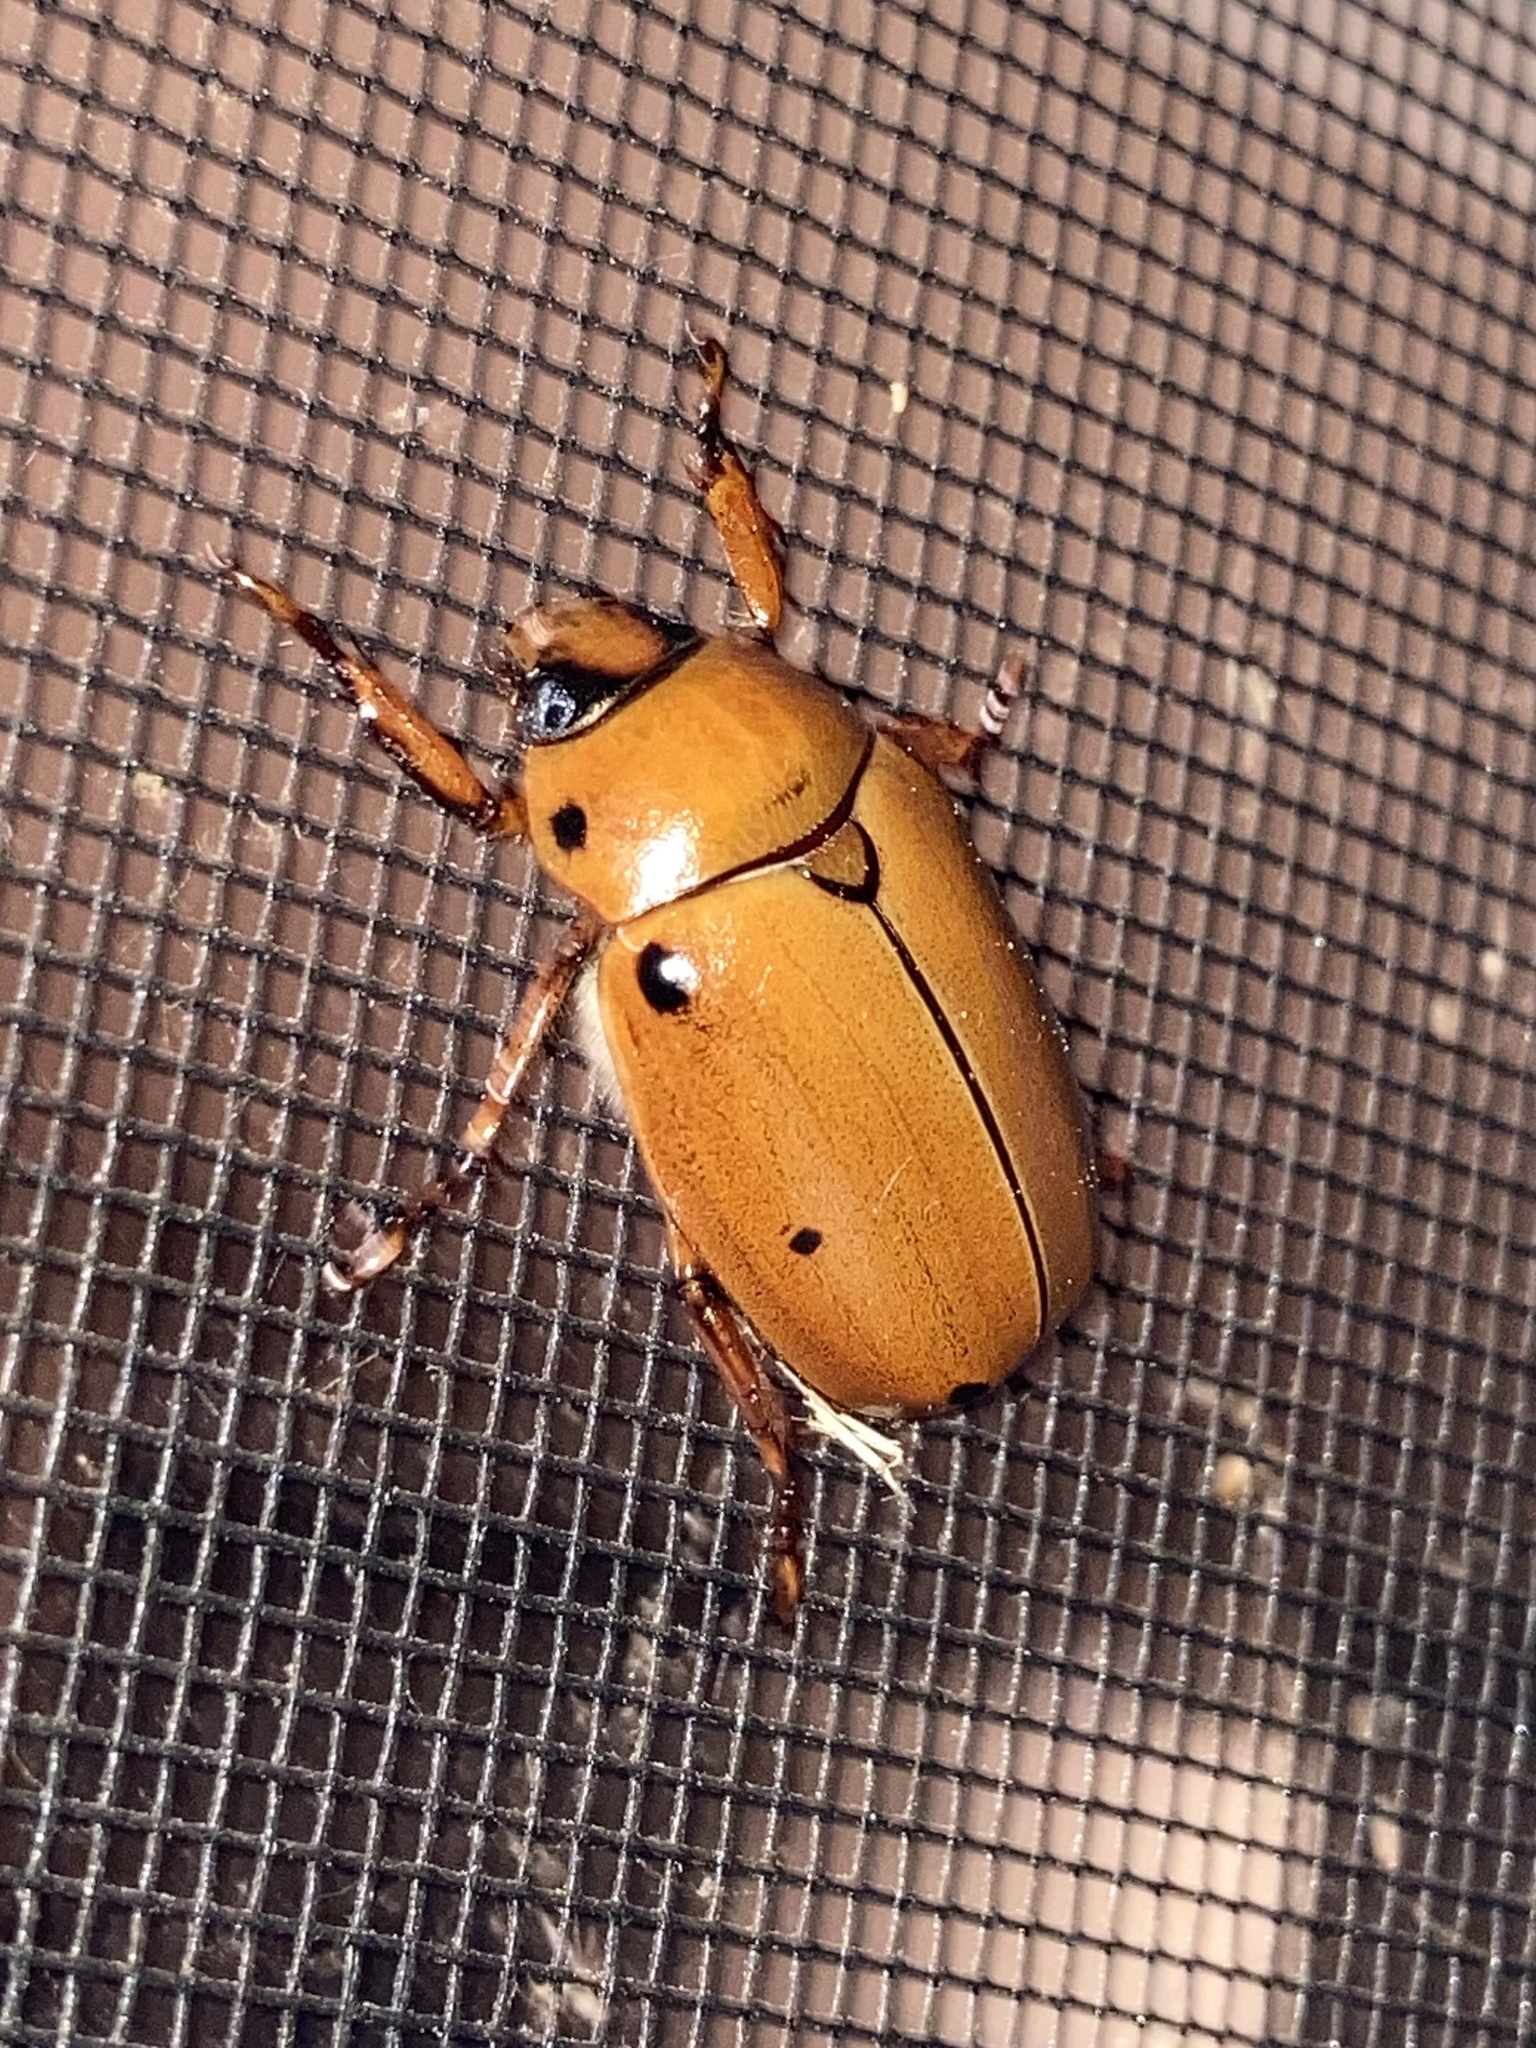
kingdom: Animalia
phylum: Arthropoda
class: Insecta
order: Coleoptera
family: Scarabaeidae
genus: Pelidnota
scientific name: Pelidnota punctata
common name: Grapevine beetle
